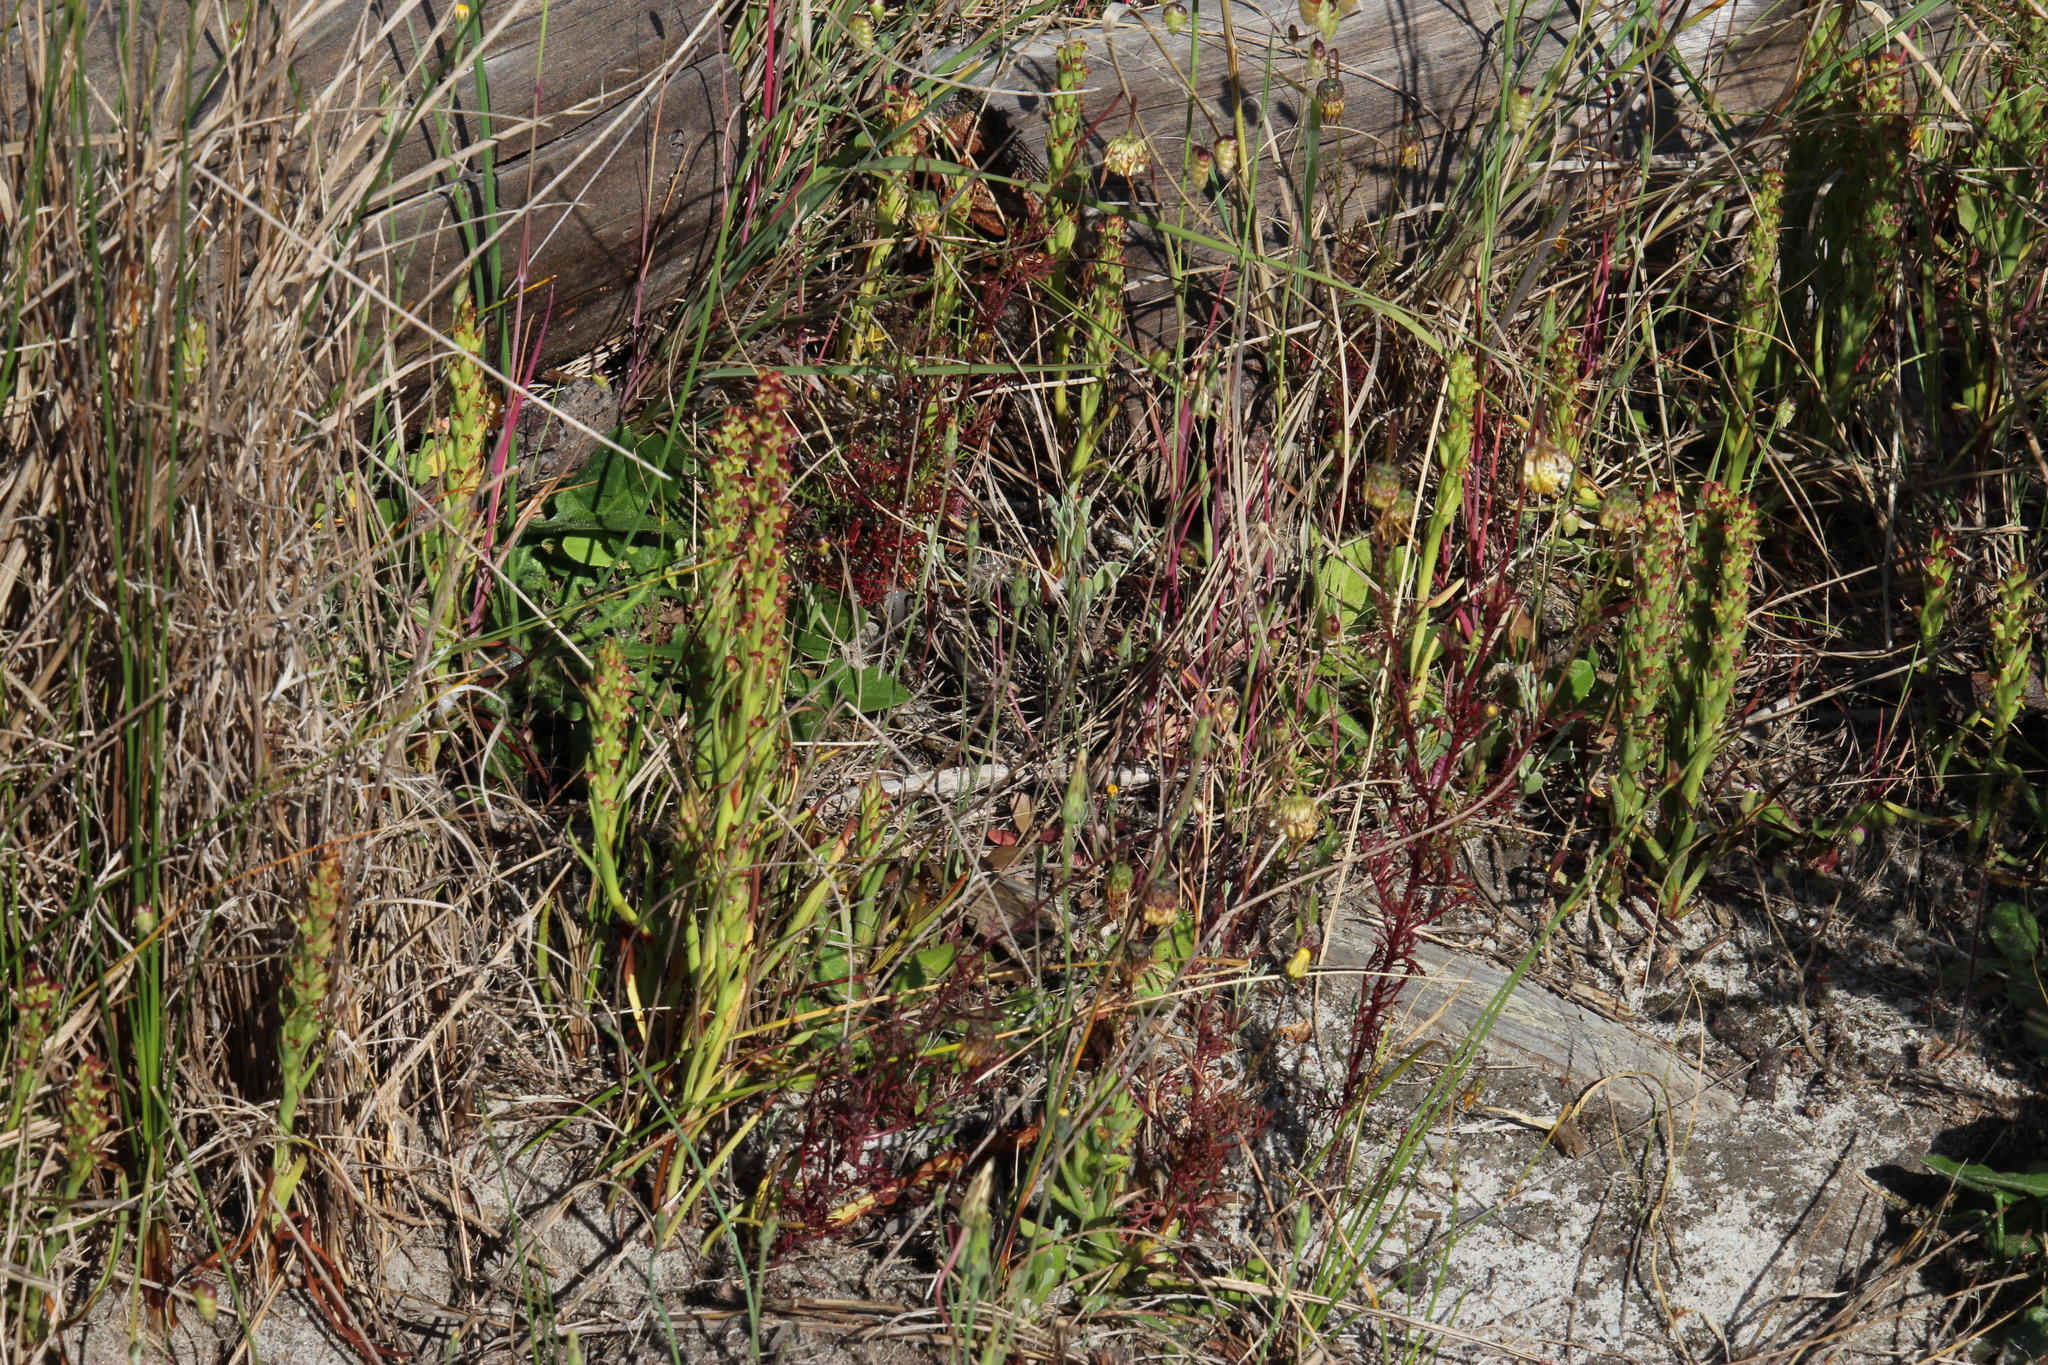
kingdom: Plantae
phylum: Tracheophyta
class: Liliopsida
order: Asparagales
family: Orchidaceae
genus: Disa
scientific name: Disa bracteata
